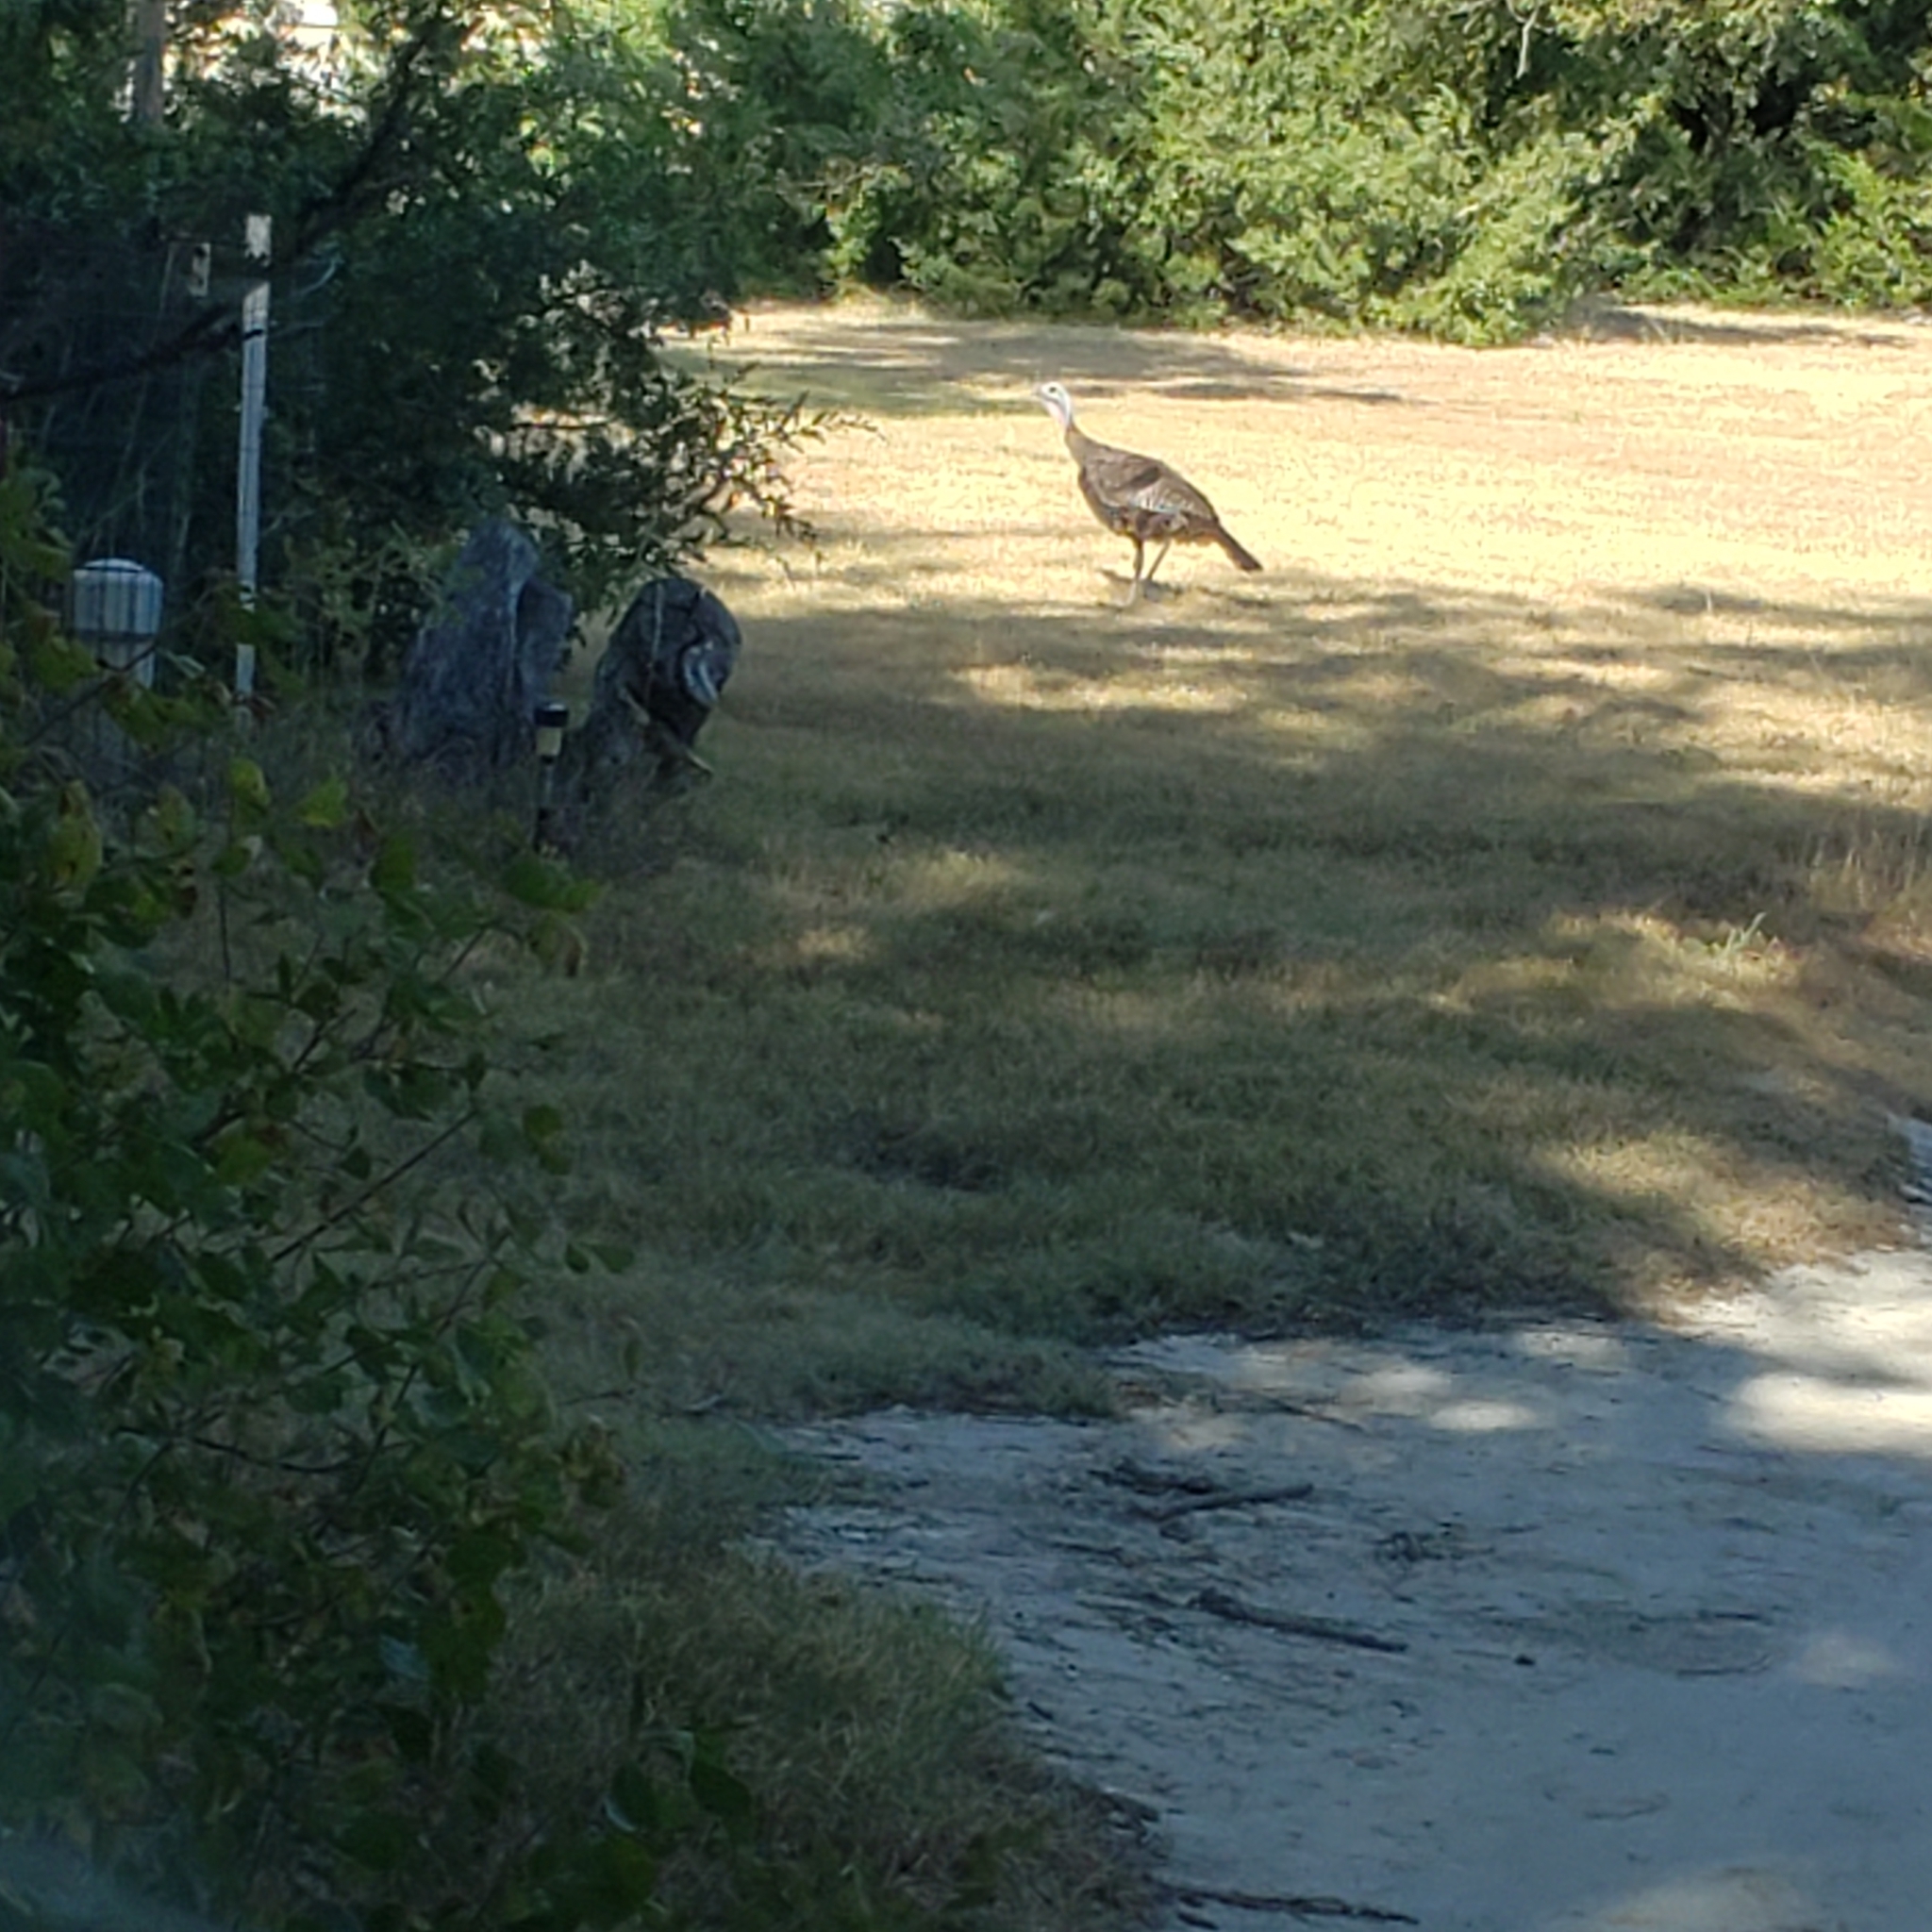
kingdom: Animalia
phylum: Chordata
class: Aves
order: Galliformes
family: Phasianidae
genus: Meleagris
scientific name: Meleagris gallopavo
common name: Wild turkey
